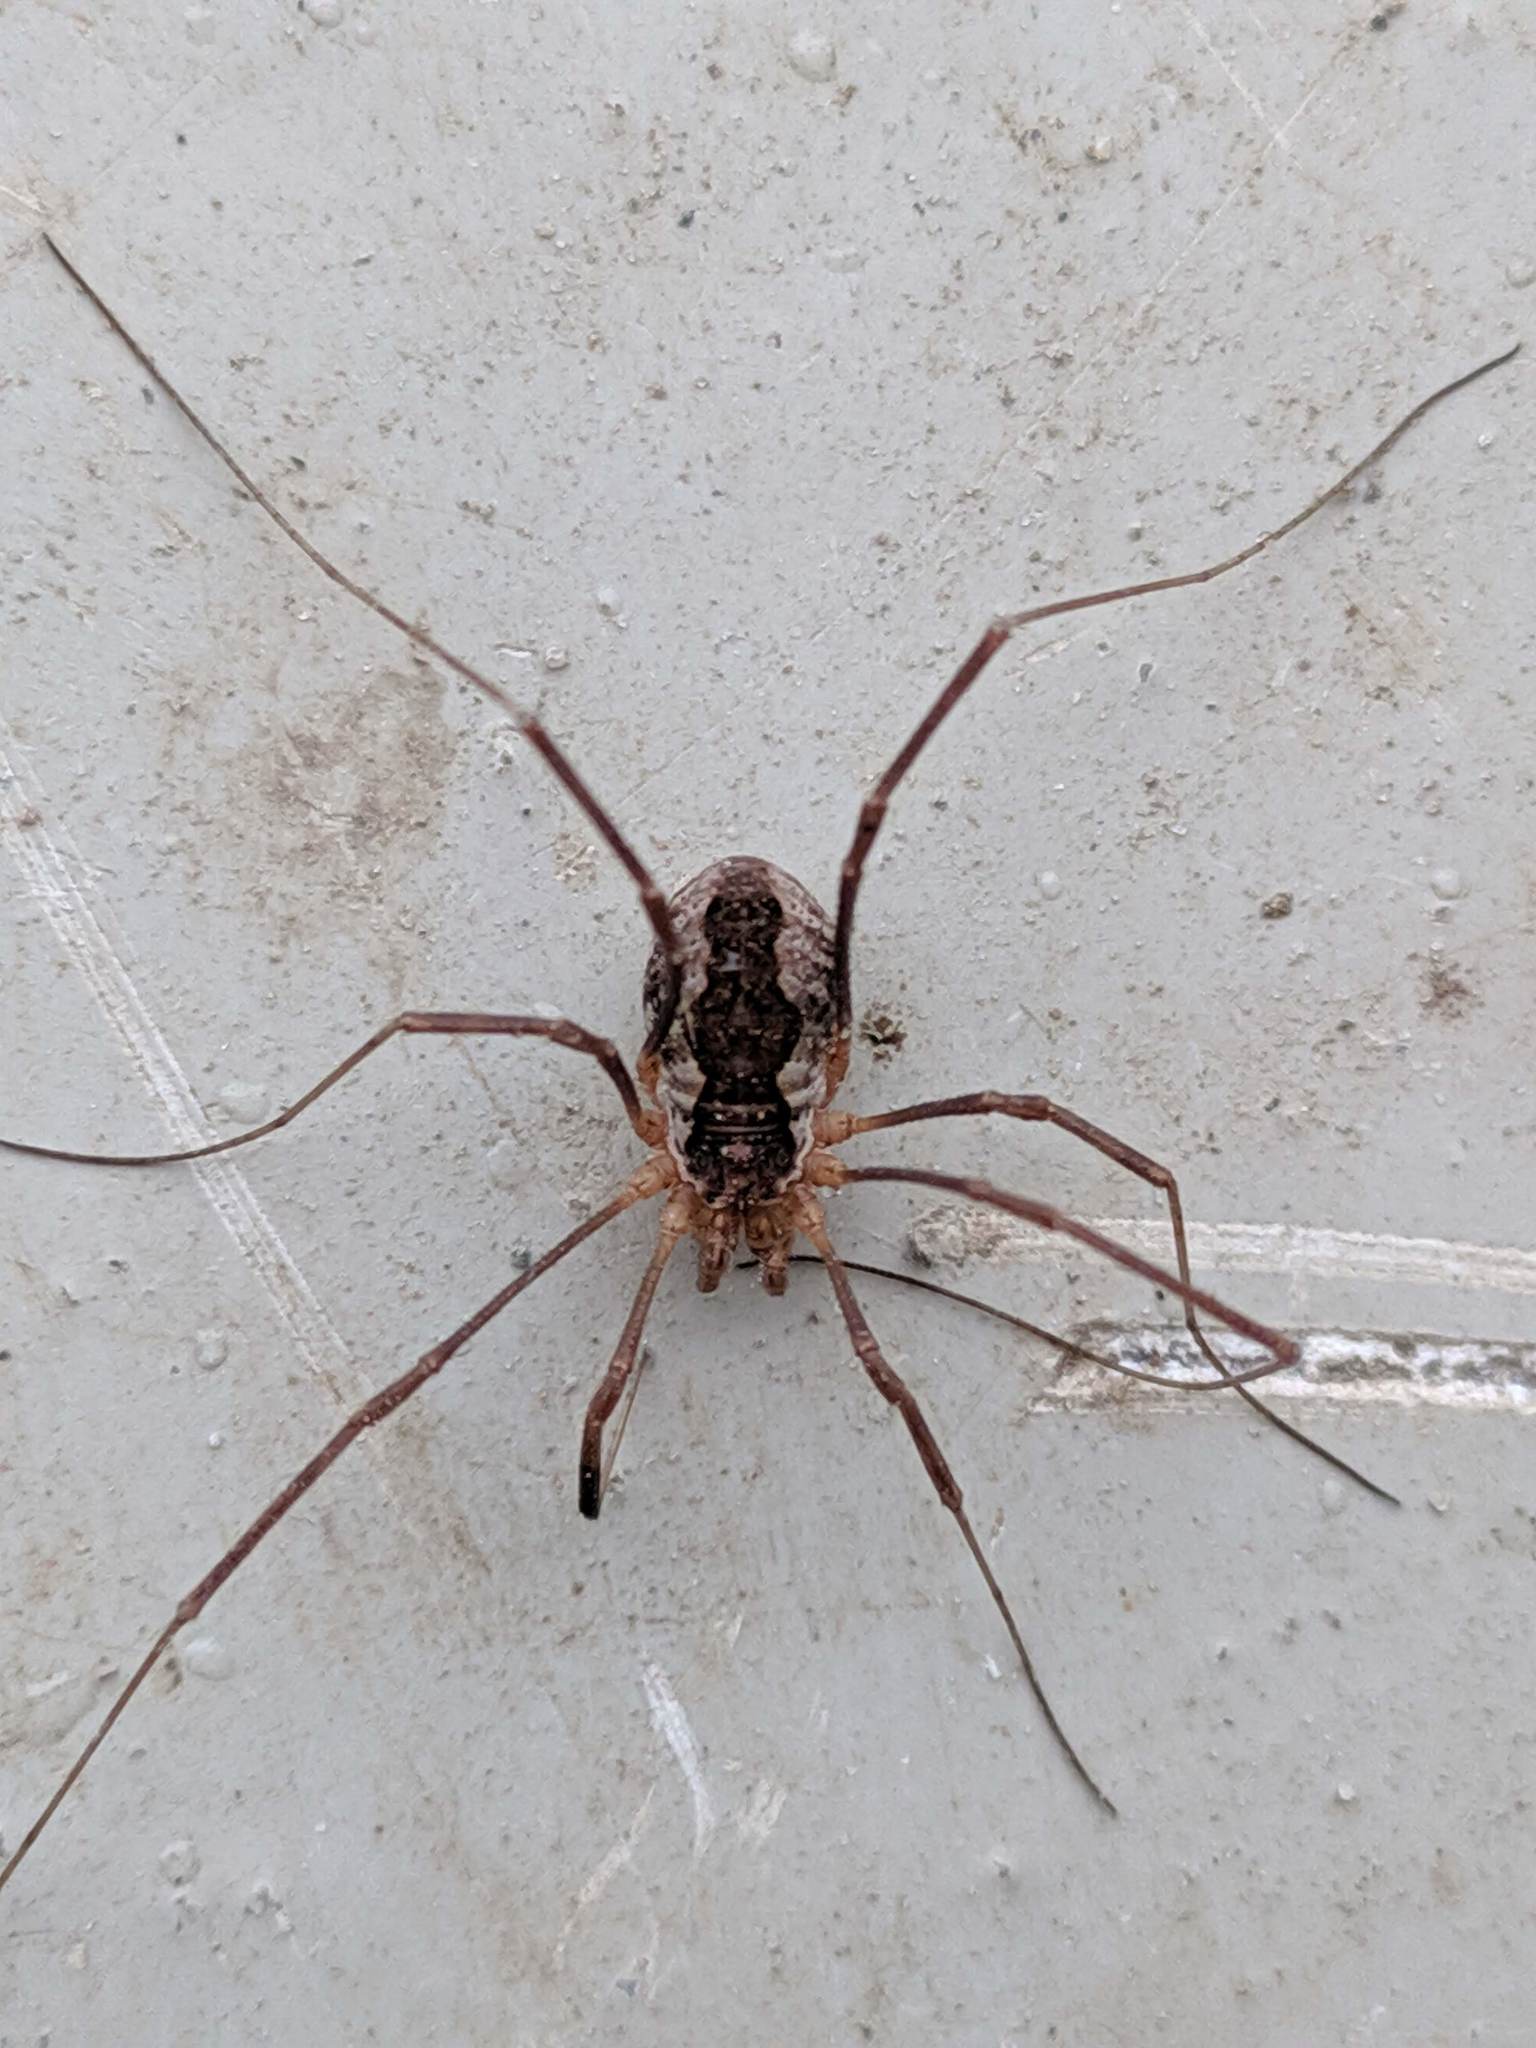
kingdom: Animalia
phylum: Arthropoda
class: Arachnida
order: Opiliones
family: Phalangiidae
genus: Mitopus
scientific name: Mitopus morio
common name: Saddleback harvestman
